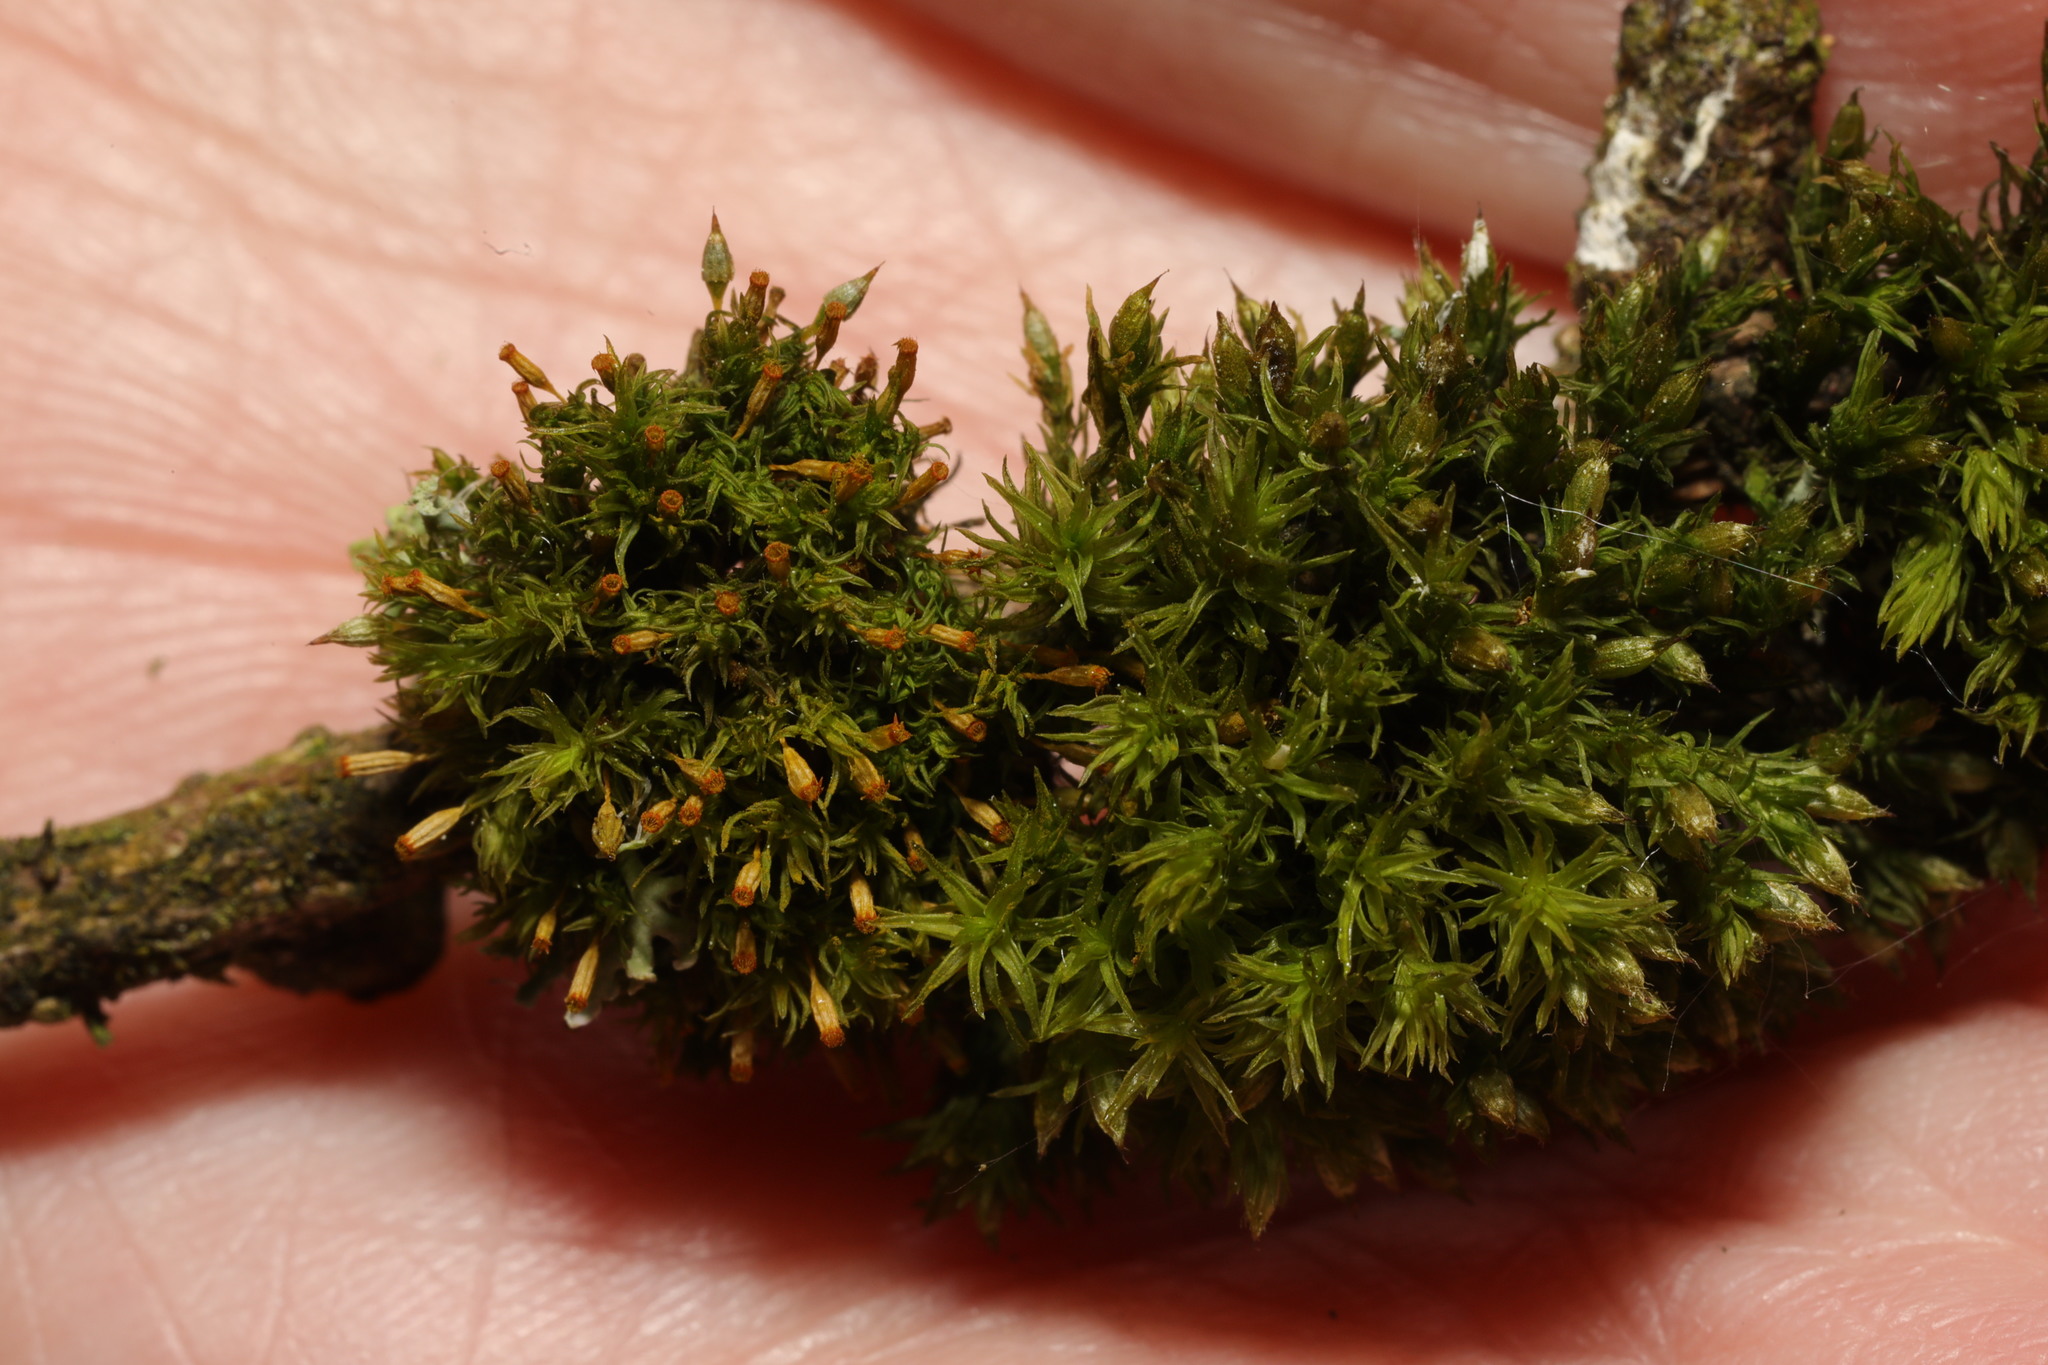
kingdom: Plantae
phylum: Bryophyta
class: Bryopsida
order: Orthotrichales
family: Orthotrichaceae
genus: Orthotrichum
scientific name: Orthotrichum pulchellum
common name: Elegant bristle-moss
